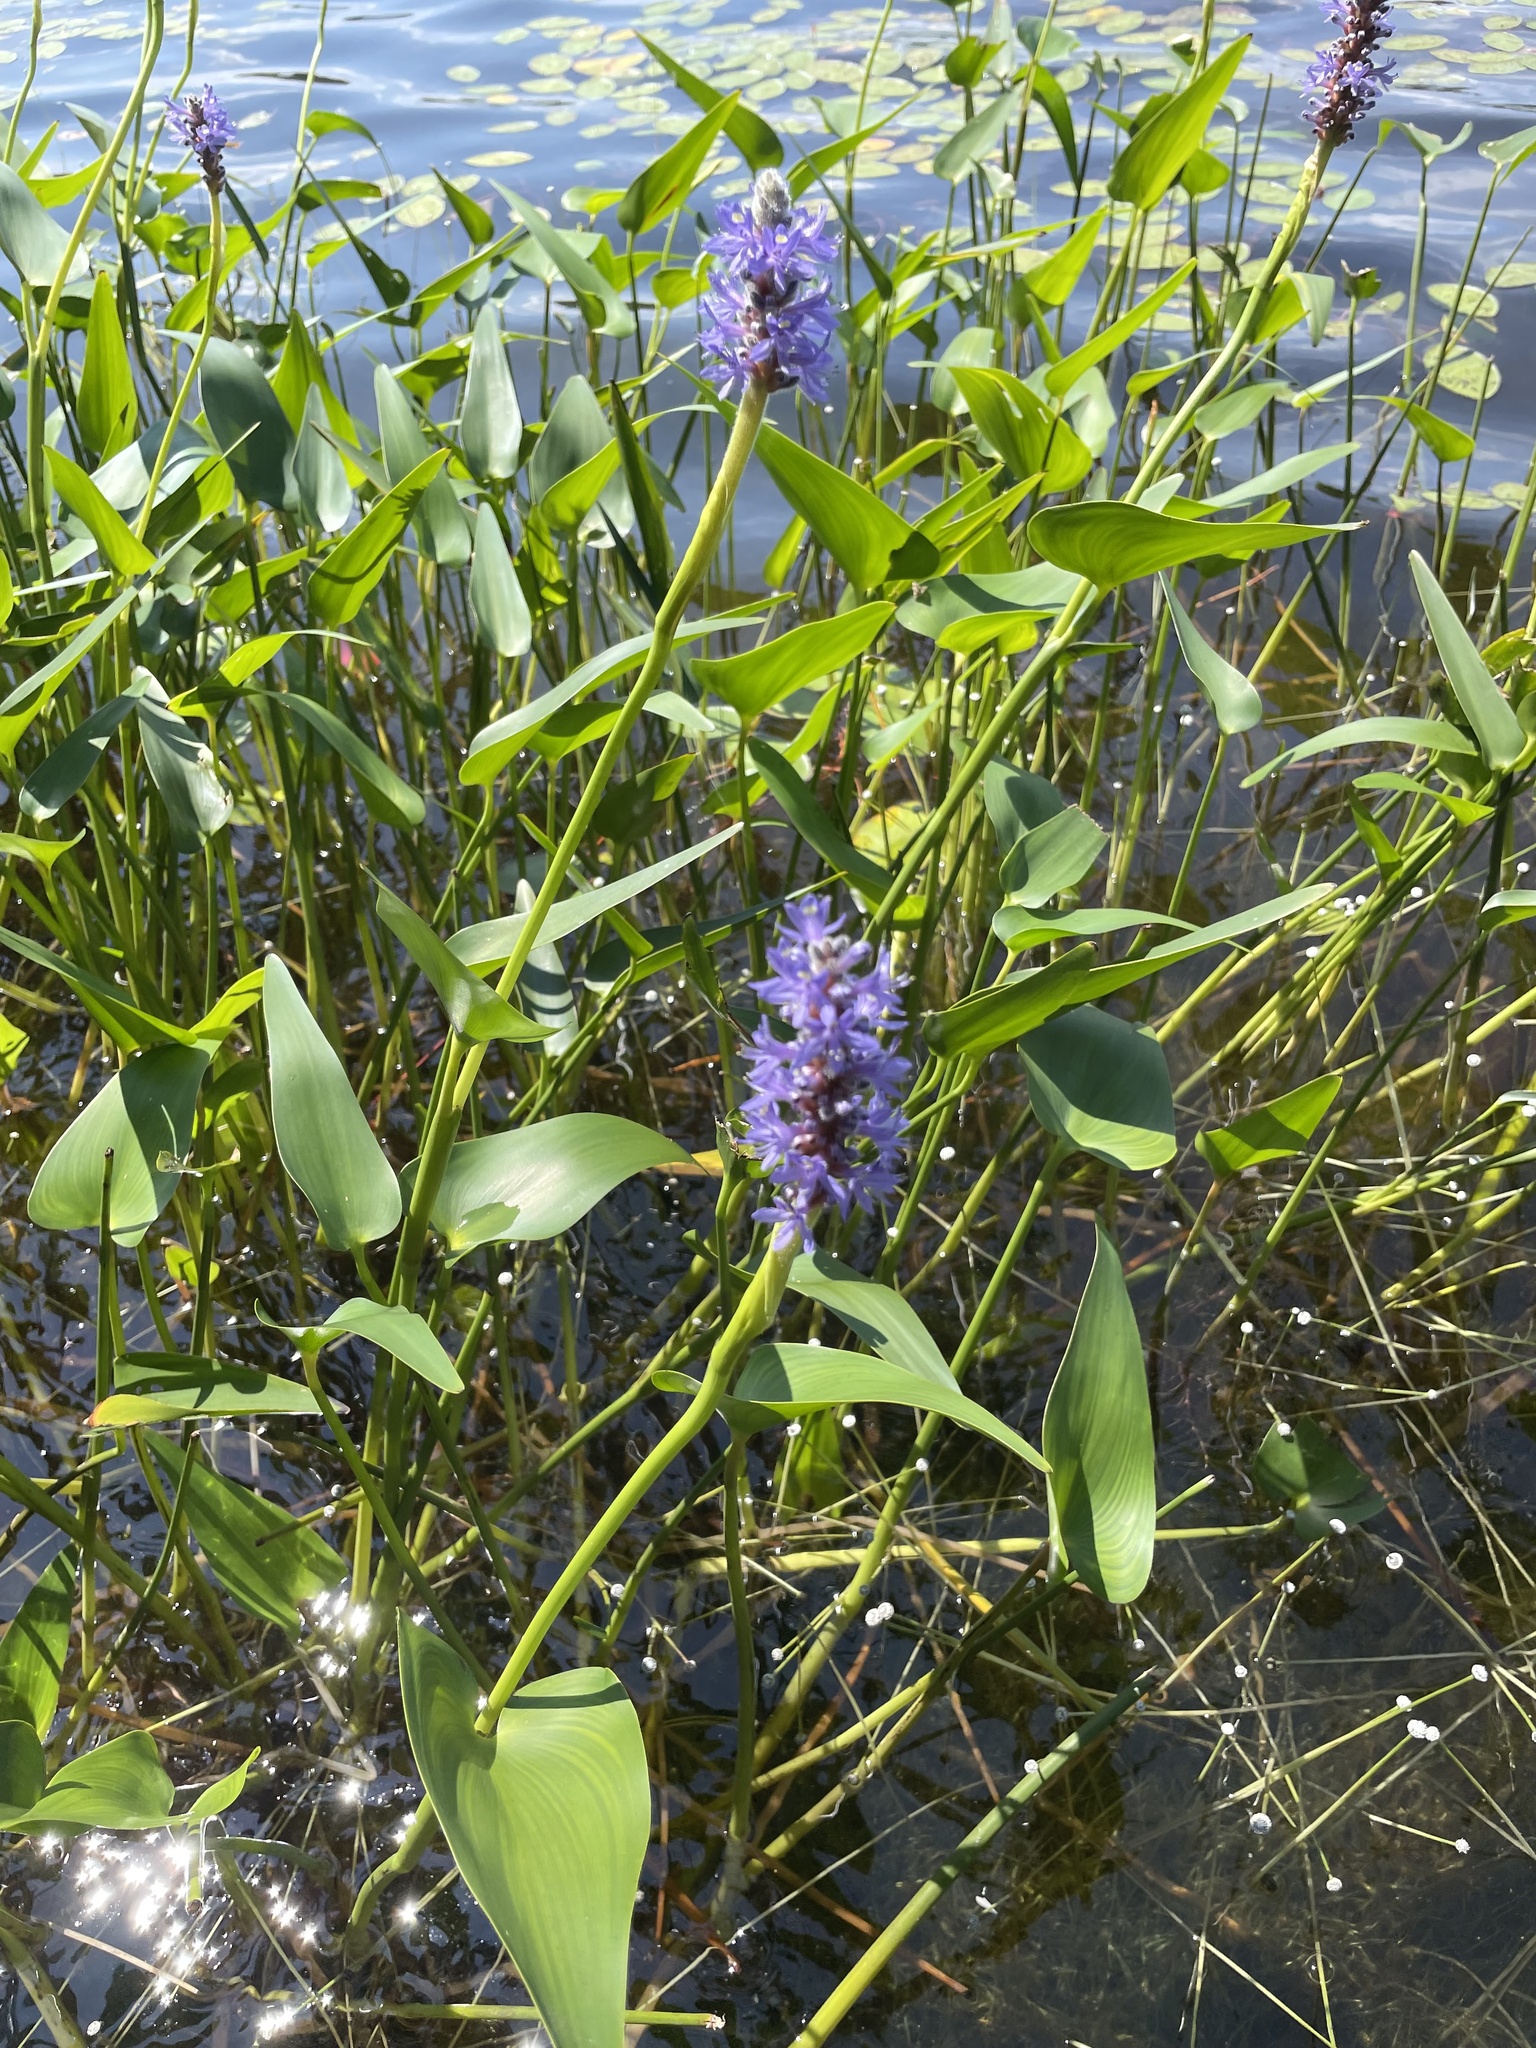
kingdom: Plantae
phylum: Tracheophyta
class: Liliopsida
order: Commelinales
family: Pontederiaceae
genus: Pontederia
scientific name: Pontederia cordata
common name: Pickerelweed
